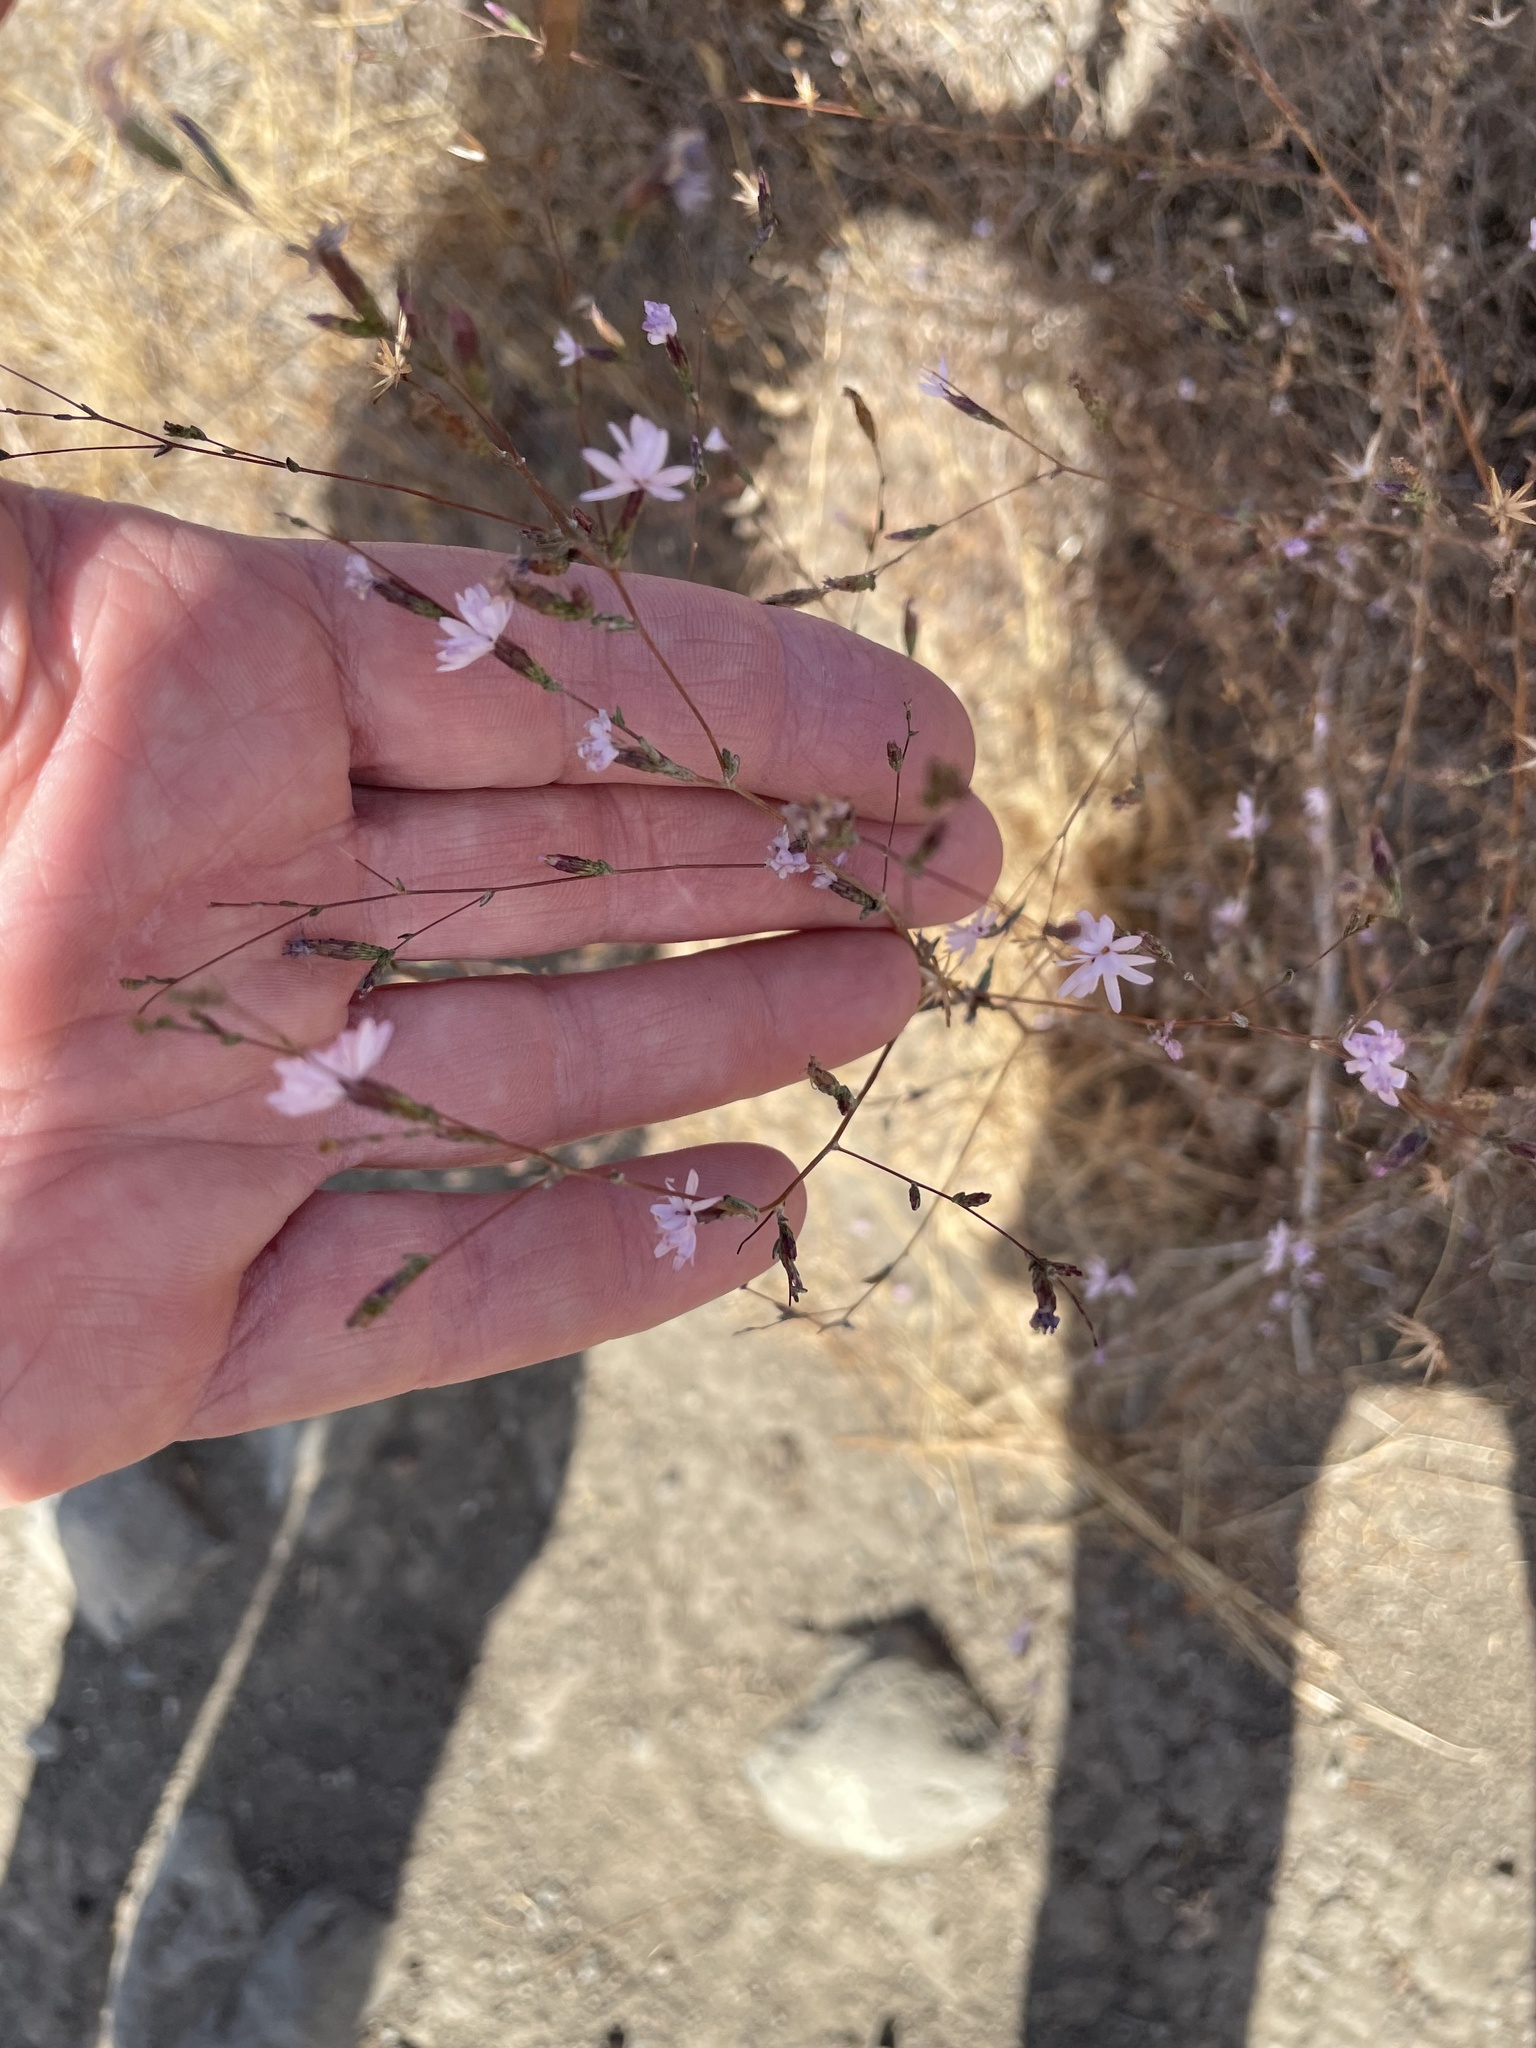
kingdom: Plantae
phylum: Tracheophyta
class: Magnoliopsida
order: Asterales
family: Asteraceae
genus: Lessingia
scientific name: Lessingia micradenia
